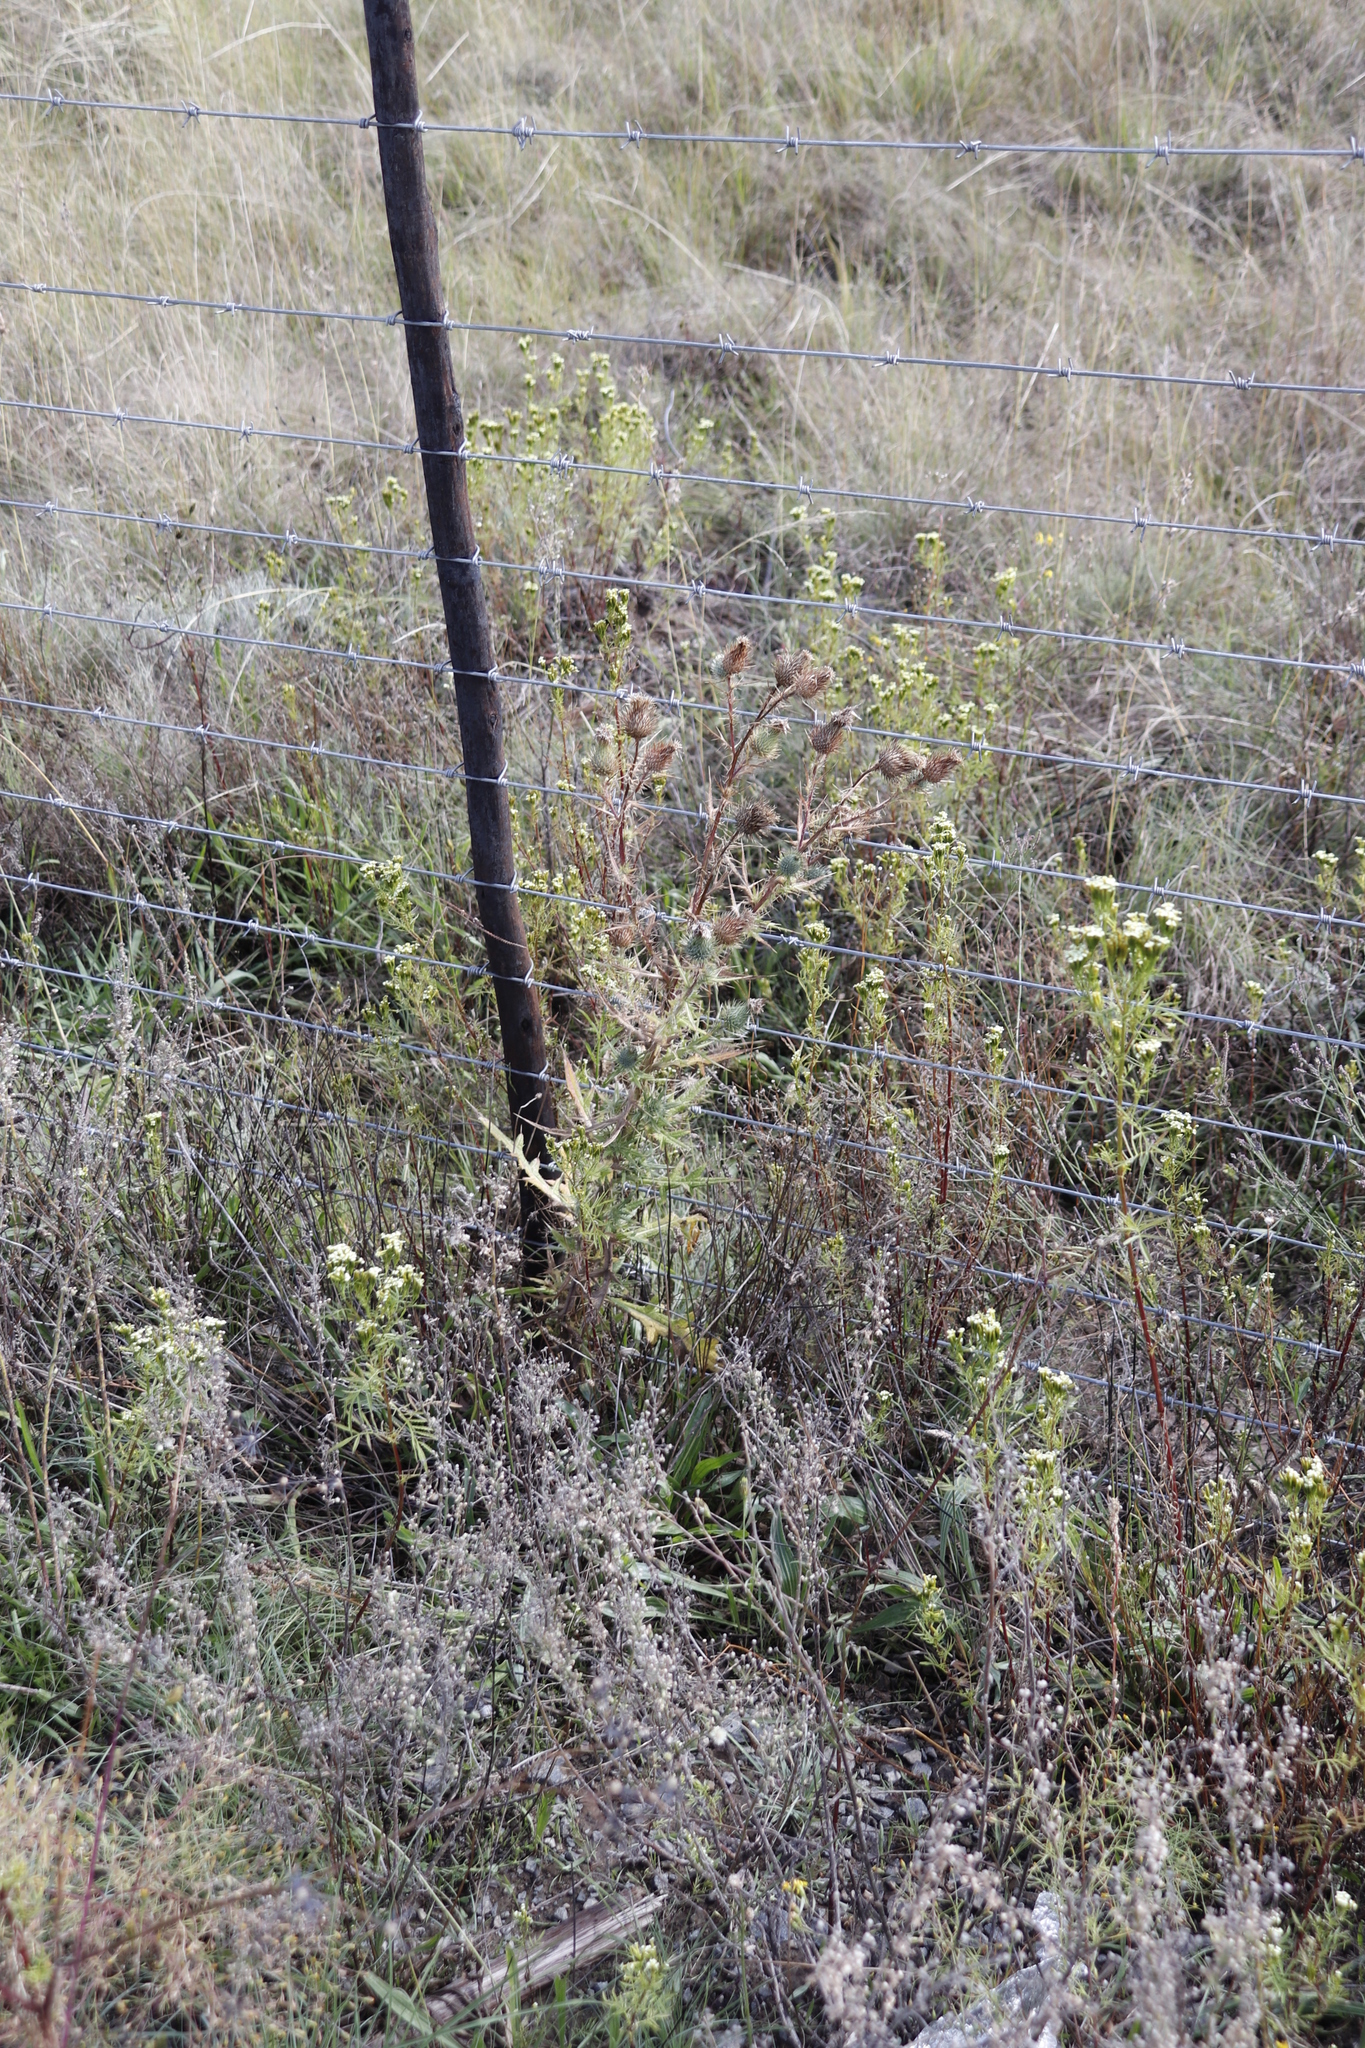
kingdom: Plantae
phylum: Tracheophyta
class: Magnoliopsida
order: Asterales
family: Asteraceae
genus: Cirsium
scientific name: Cirsium vulgare
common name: Bull thistle
